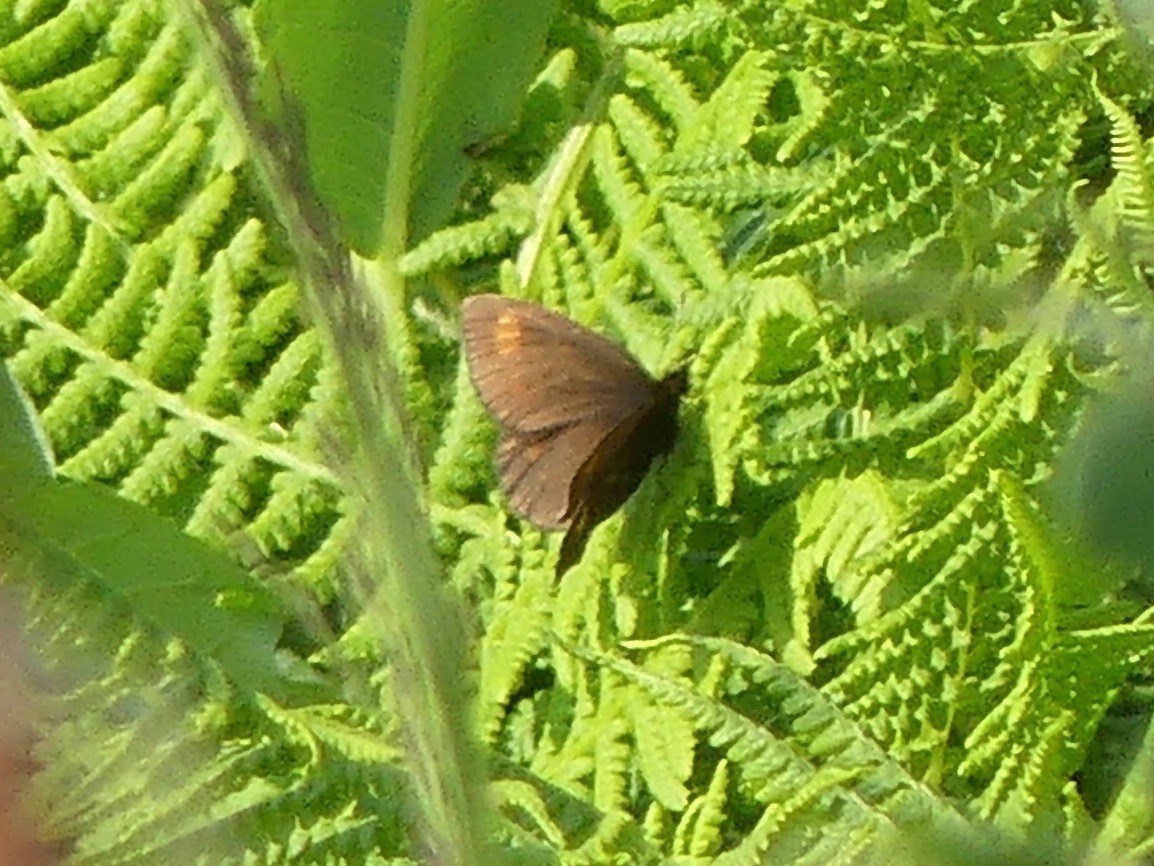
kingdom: Animalia
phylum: Arthropoda
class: Insecta
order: Lepidoptera
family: Nymphalidae
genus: Erebia
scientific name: Erebia pawloskii
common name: Theano alpine
